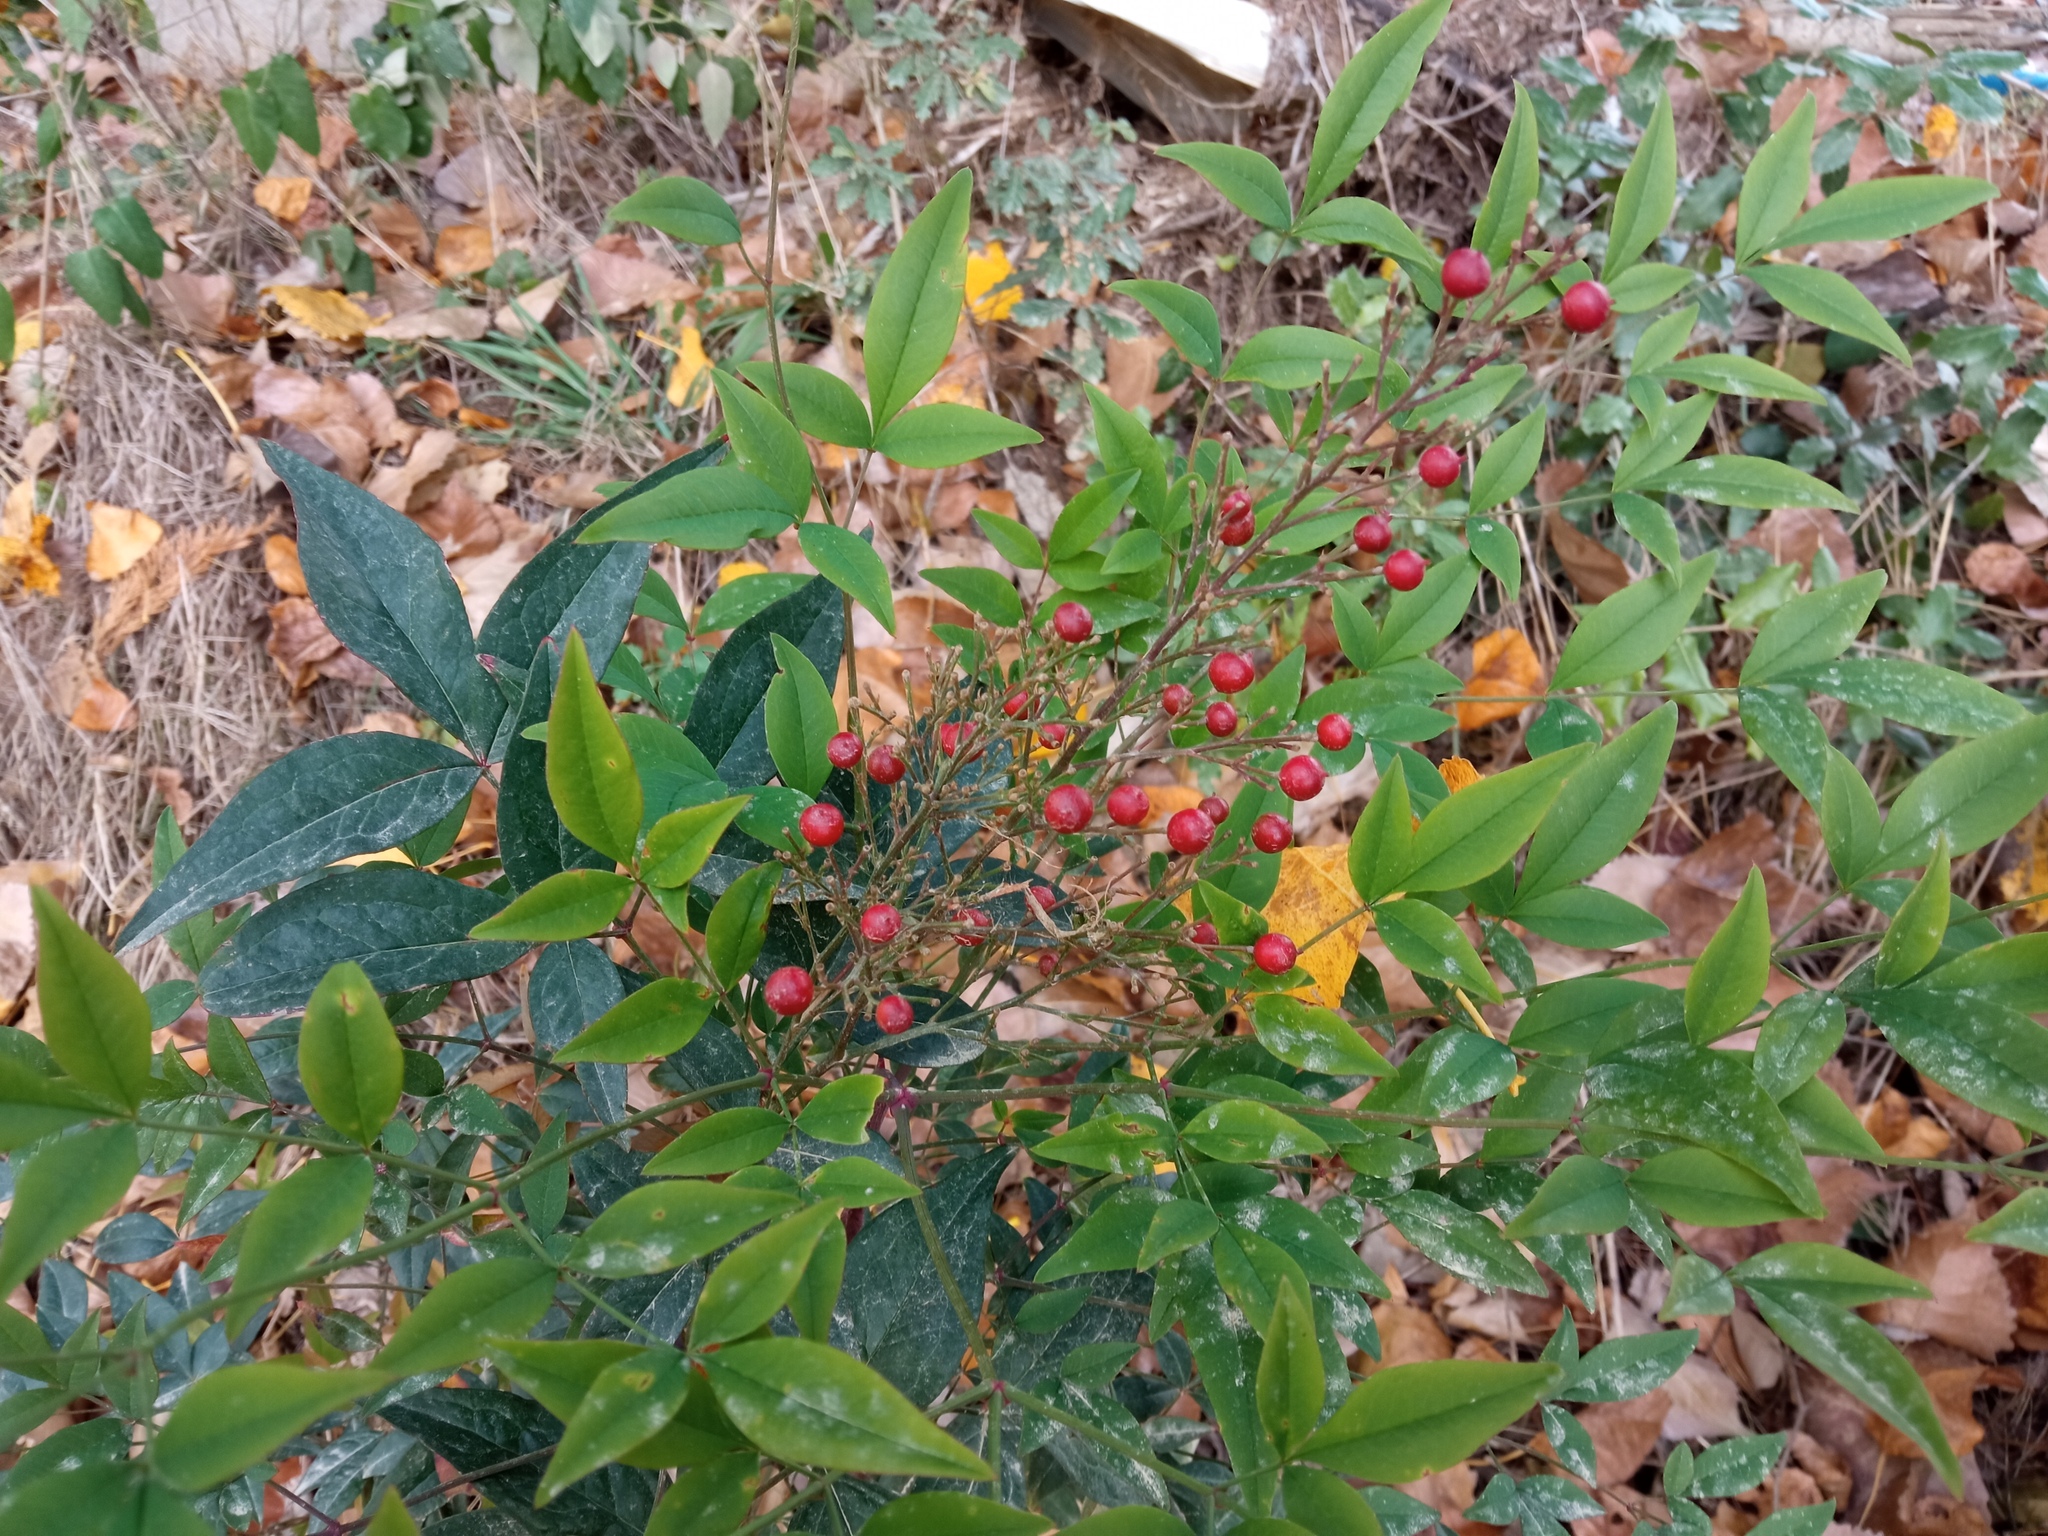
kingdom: Plantae
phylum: Tracheophyta
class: Magnoliopsida
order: Ranunculales
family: Berberidaceae
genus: Nandina
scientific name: Nandina domestica
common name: Sacred bamboo
